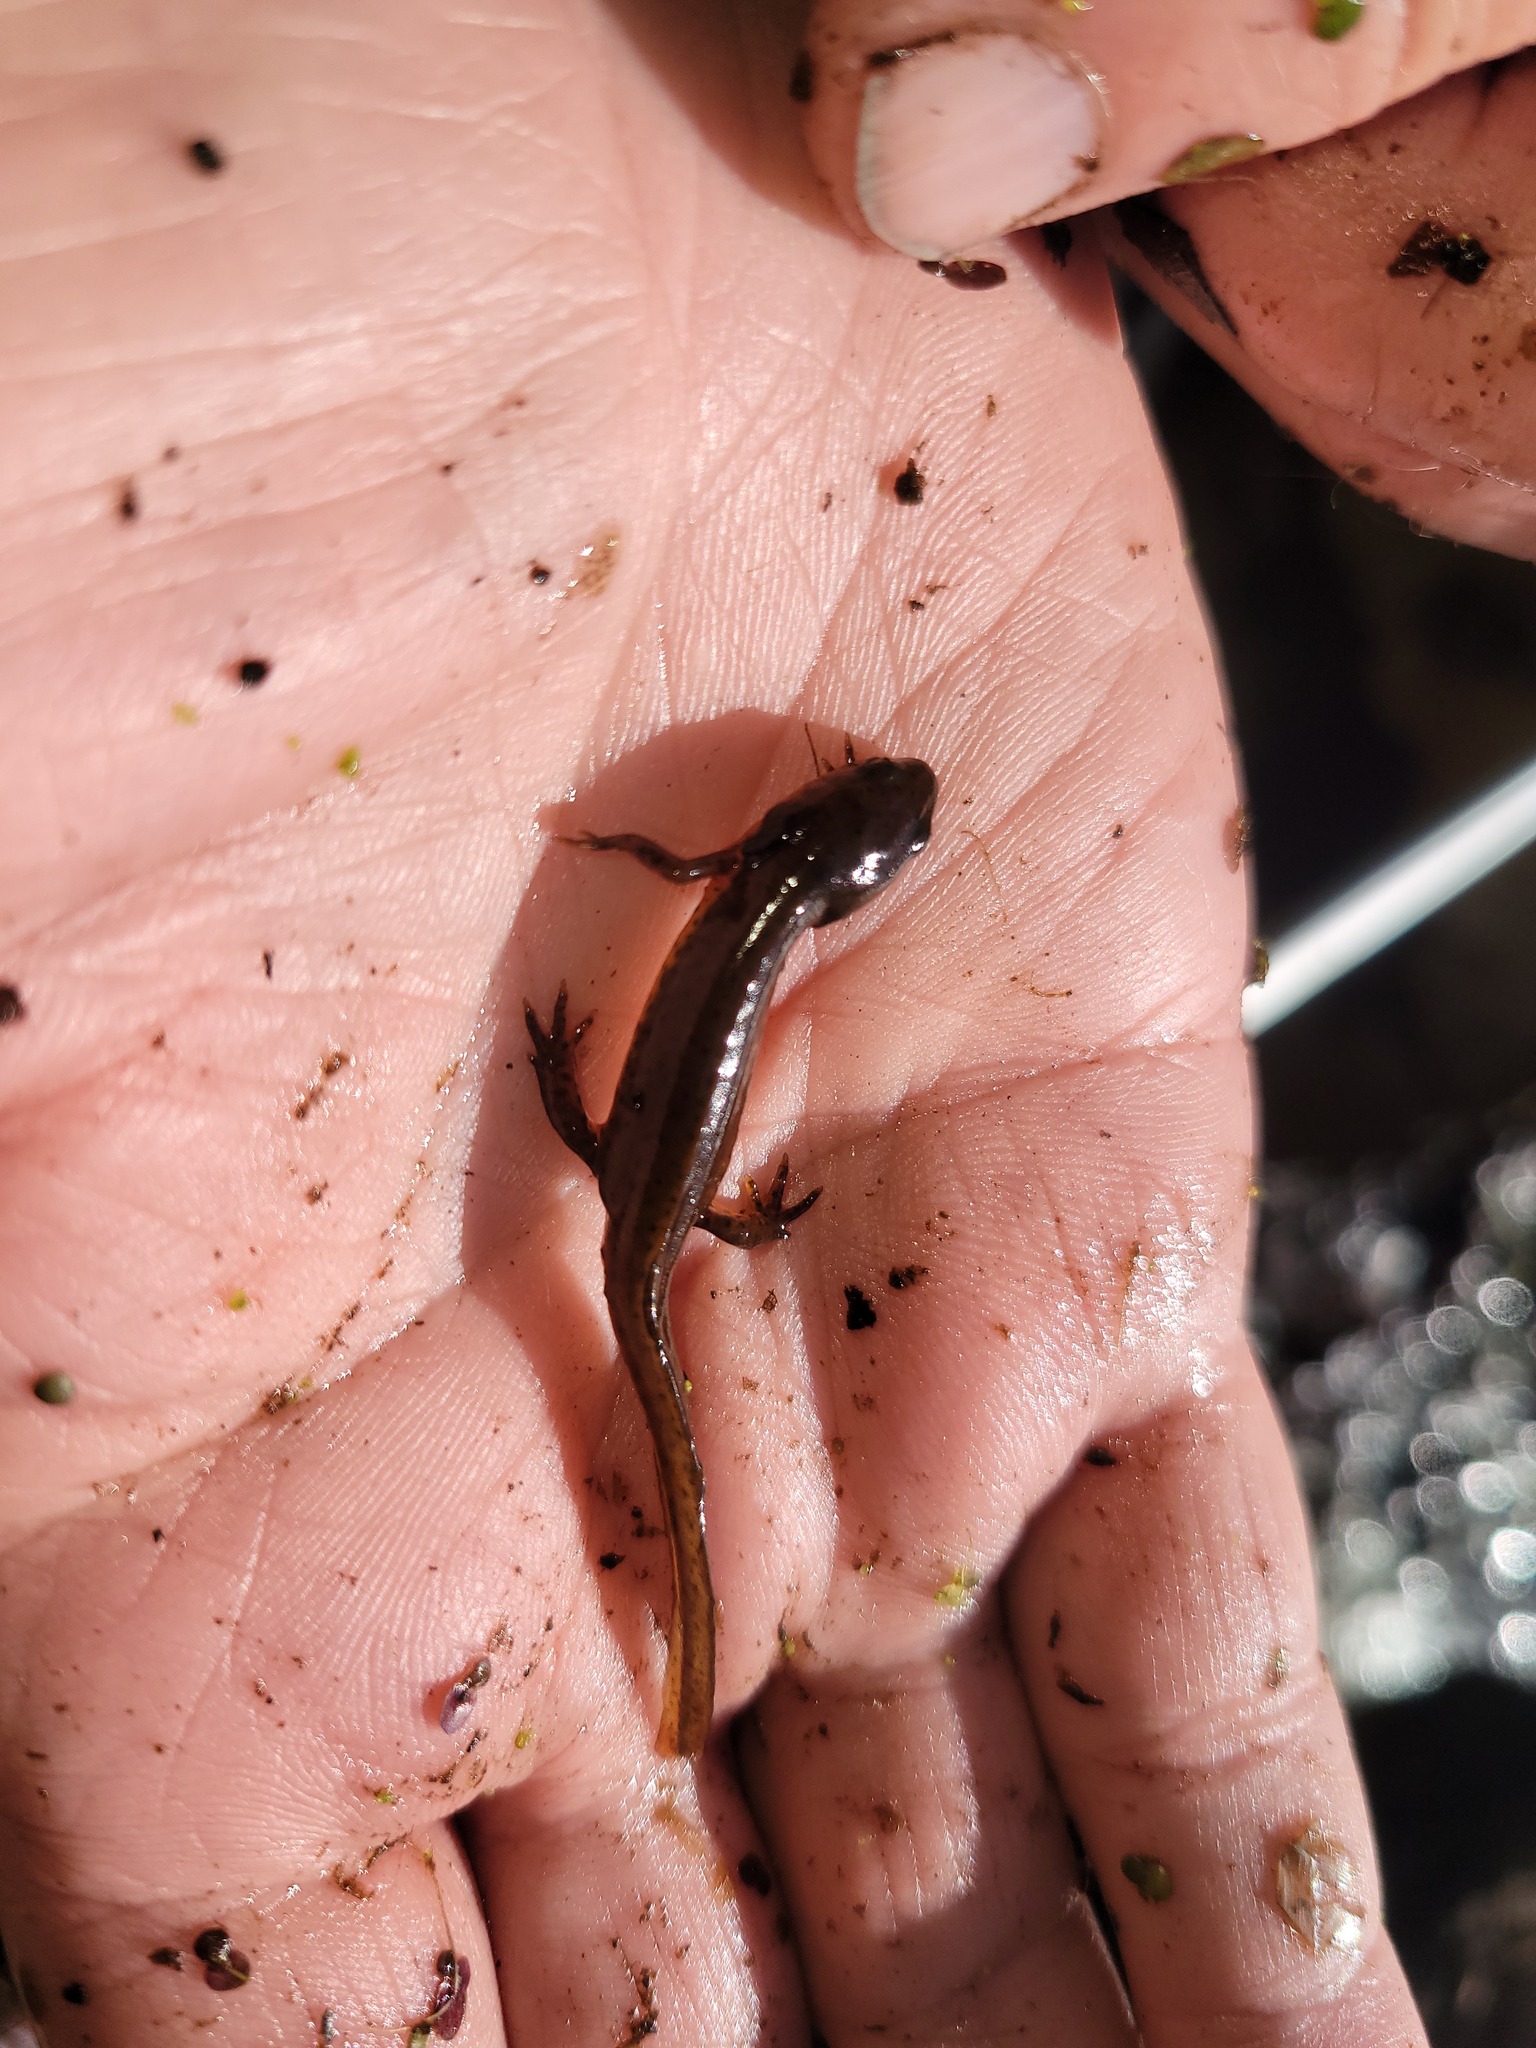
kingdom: Animalia
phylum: Chordata
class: Amphibia
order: Caudata
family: Salamandridae
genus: Notophthalmus
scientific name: Notophthalmus viridescens
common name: Eastern newt
